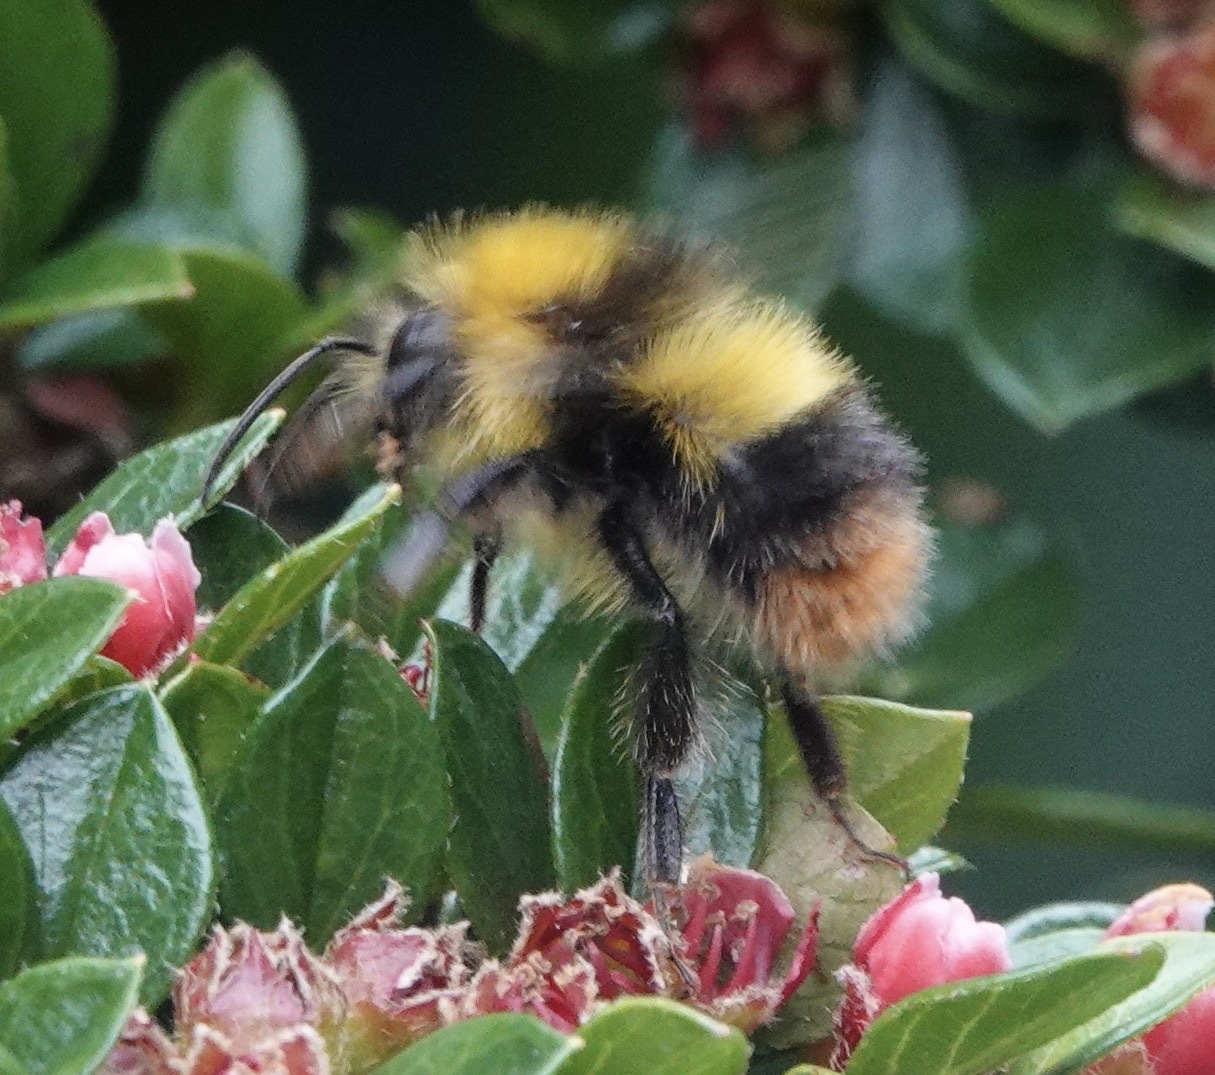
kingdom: Animalia
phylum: Arthropoda
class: Insecta
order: Hymenoptera
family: Apidae
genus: Bombus
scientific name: Bombus pratorum
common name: Early humble-bee
